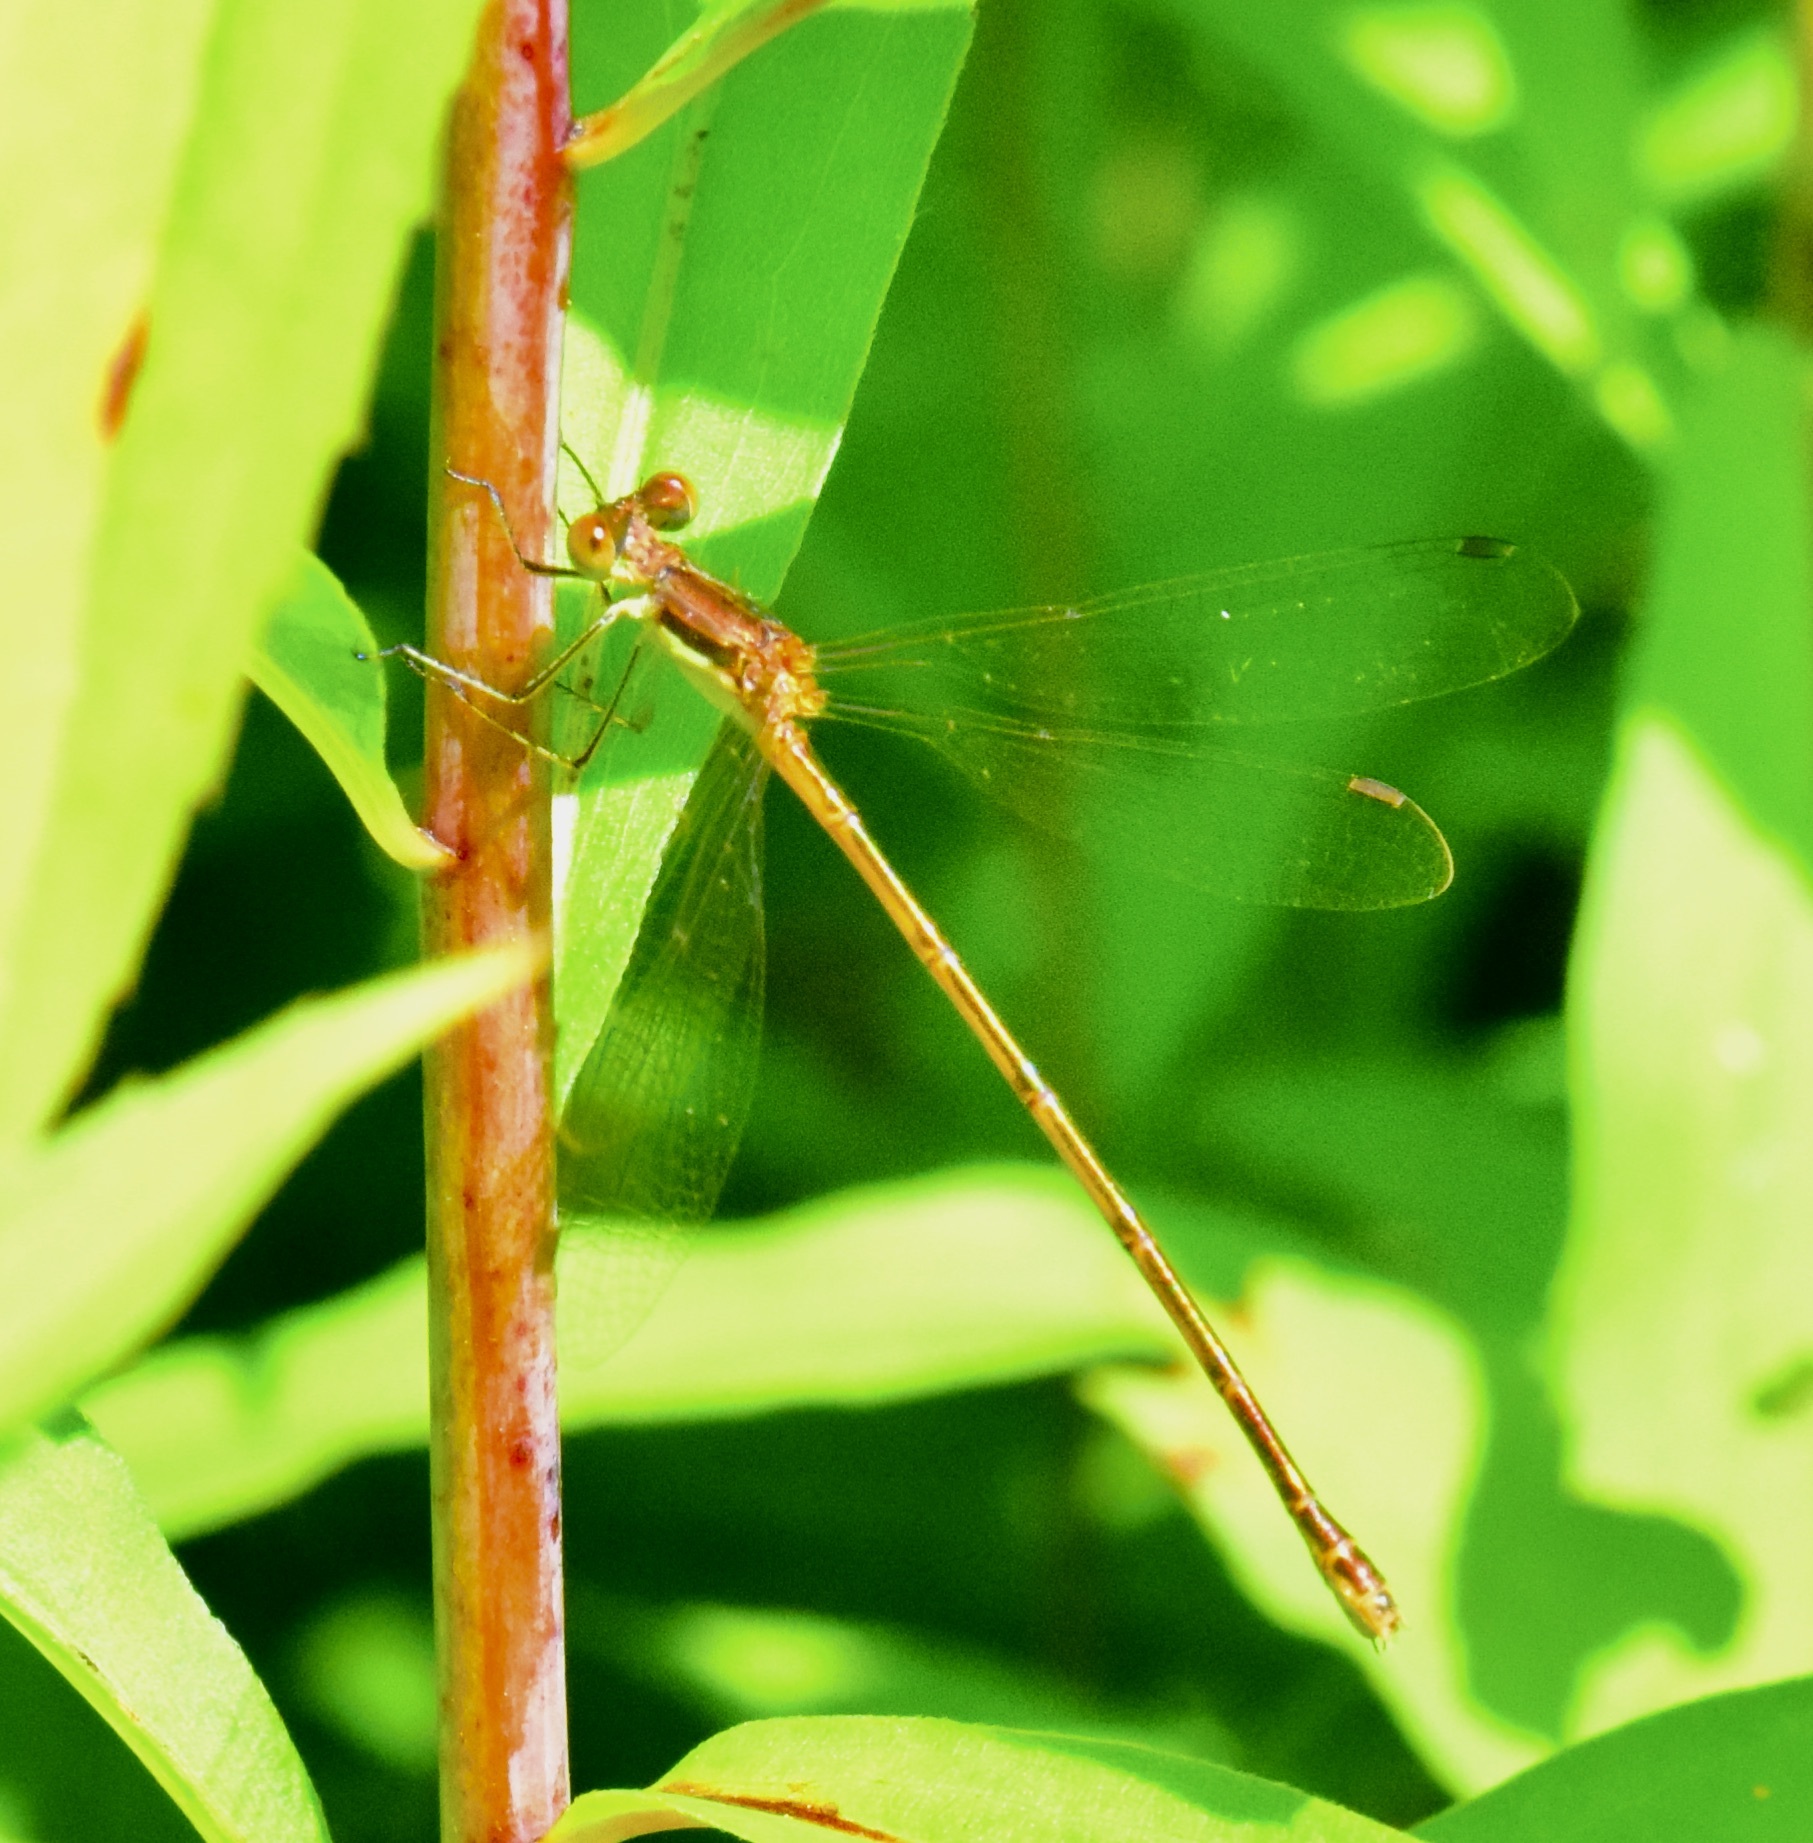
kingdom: Animalia
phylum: Arthropoda
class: Insecta
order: Odonata
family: Lestidae
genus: Lestes
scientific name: Lestes rectangularis
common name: Slender spreadwing
